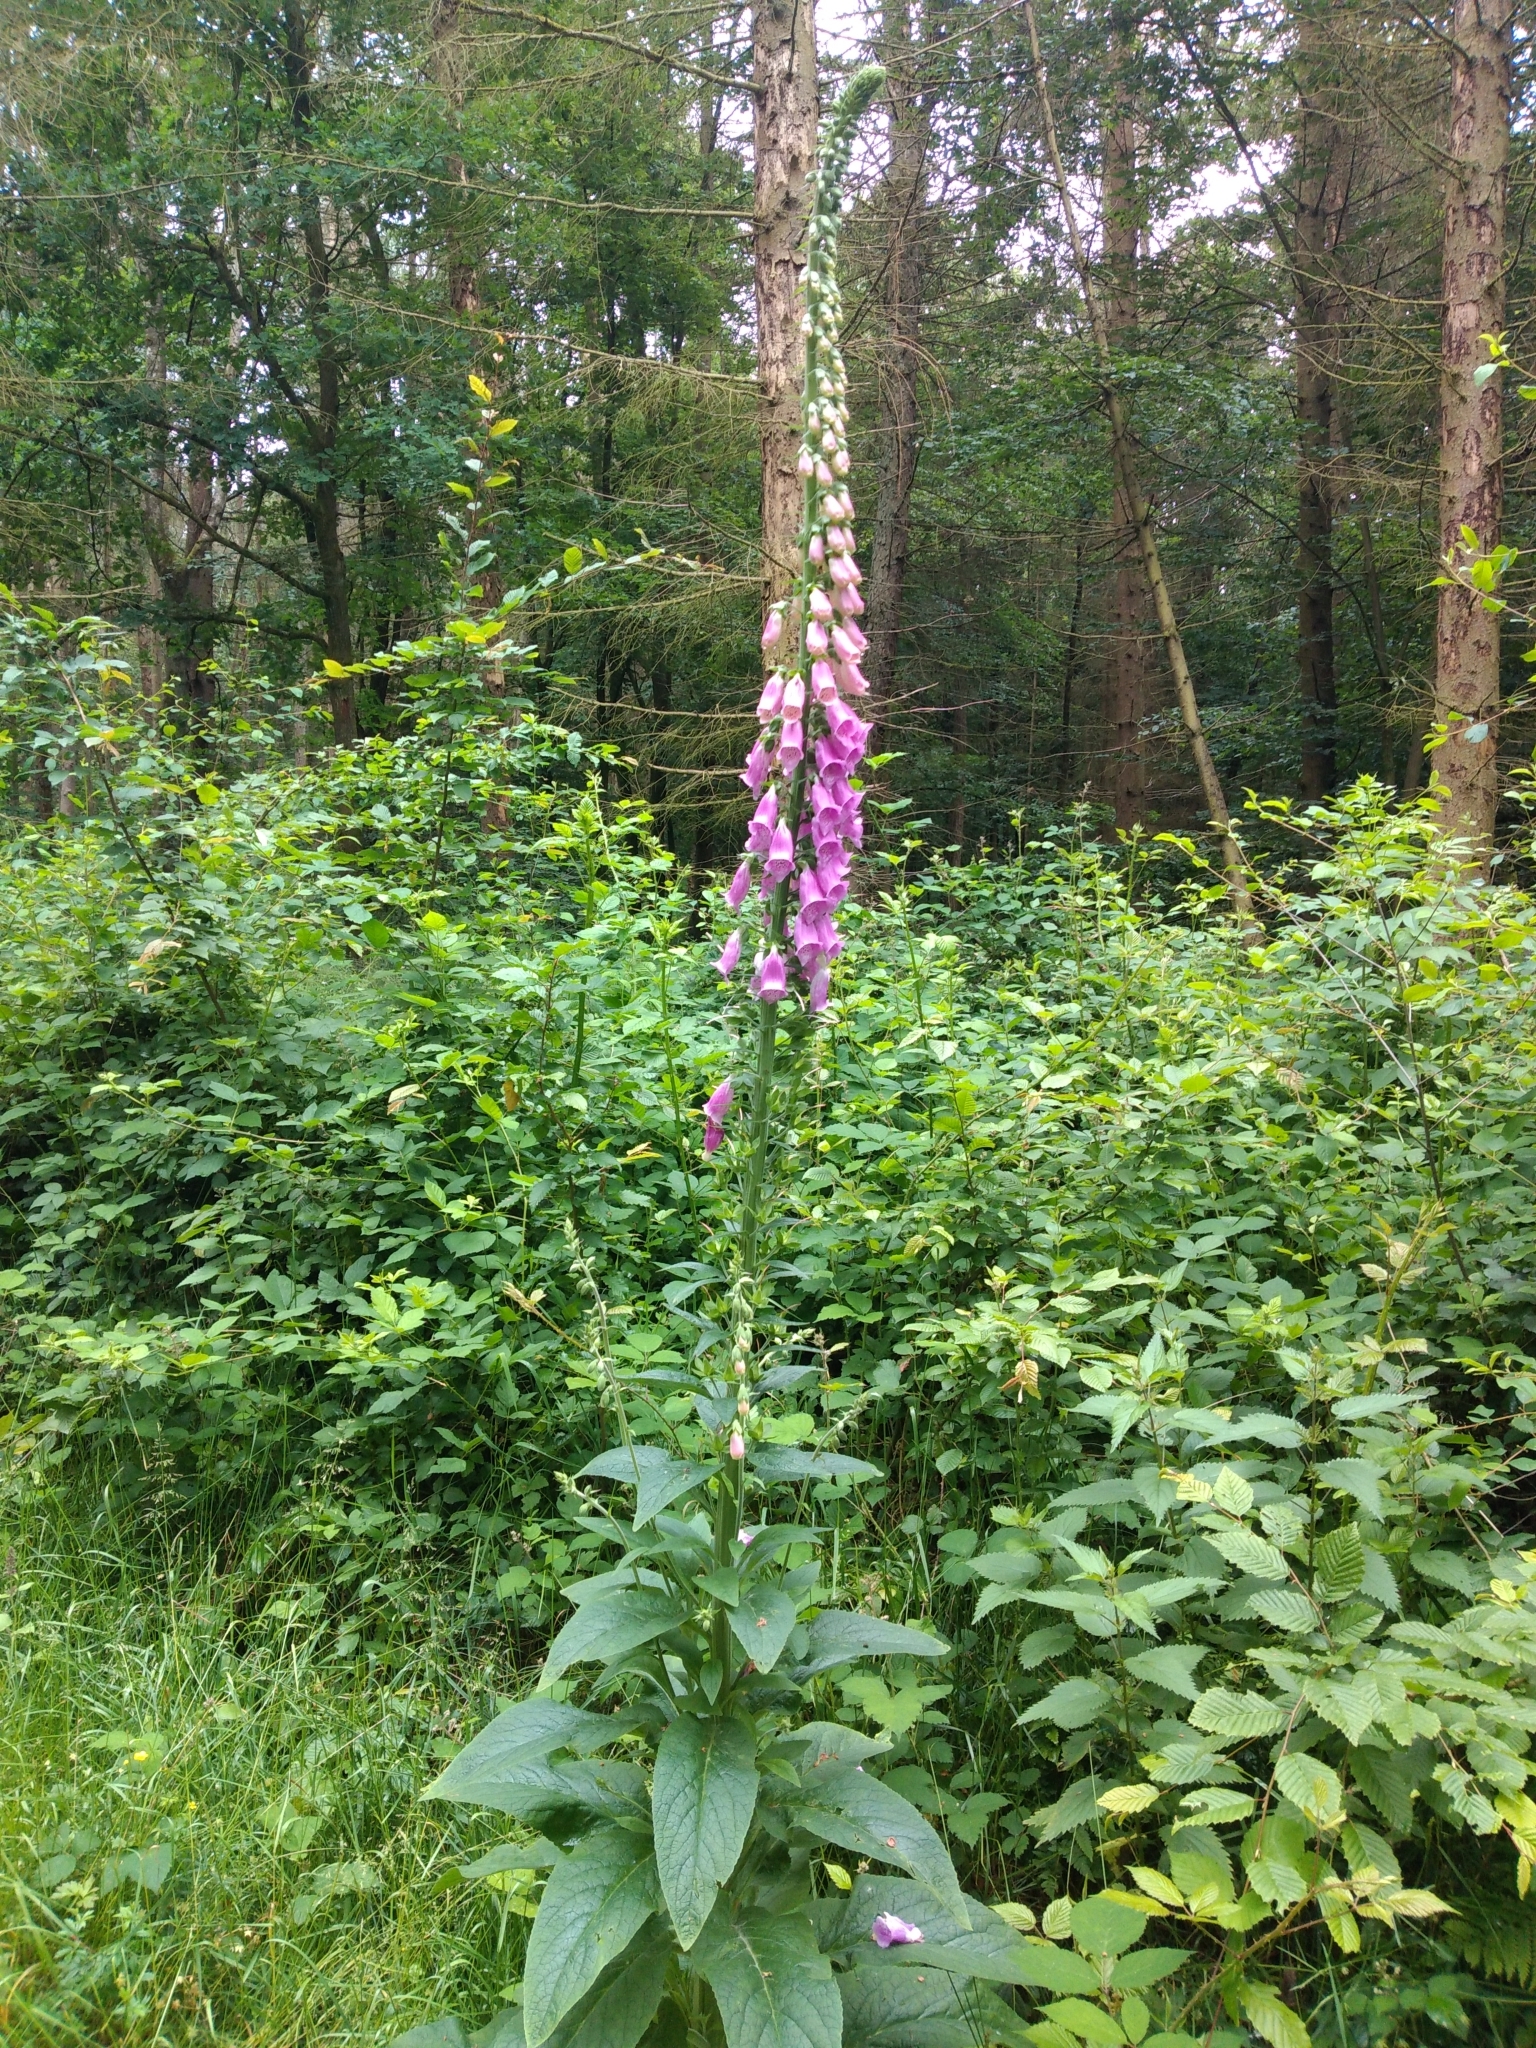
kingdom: Plantae
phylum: Tracheophyta
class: Magnoliopsida
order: Lamiales
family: Plantaginaceae
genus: Digitalis
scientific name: Digitalis purpurea
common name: Foxglove
